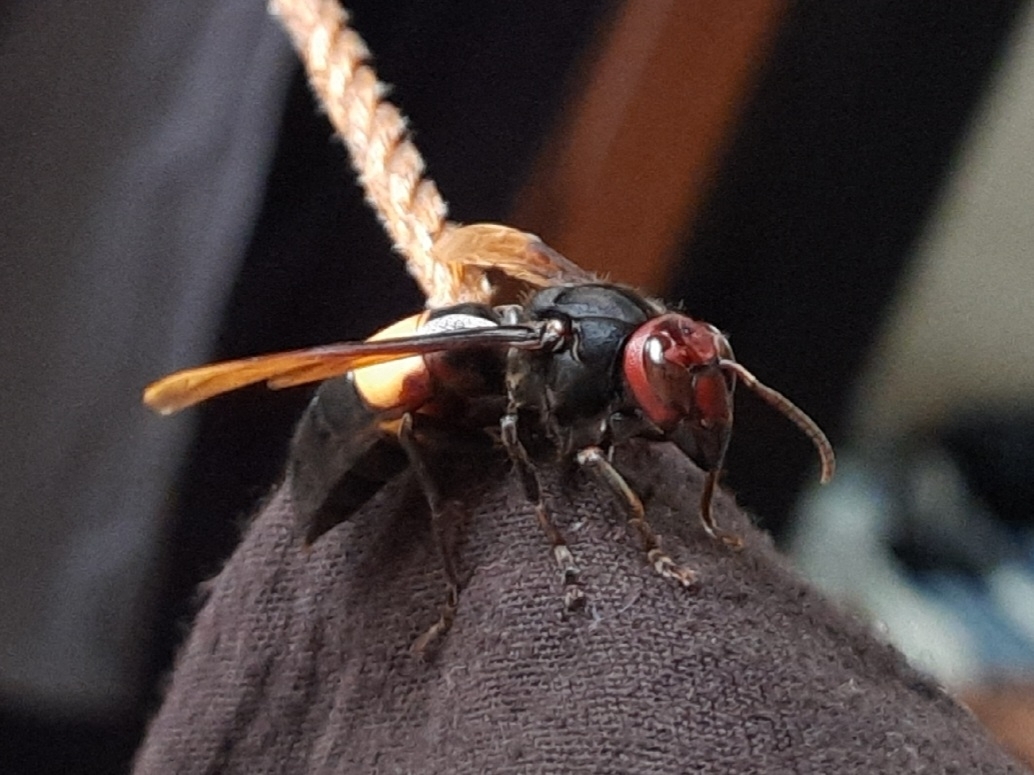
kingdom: Animalia
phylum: Arthropoda
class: Insecta
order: Hymenoptera
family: Vespidae
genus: Vespa
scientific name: Vespa affinis
